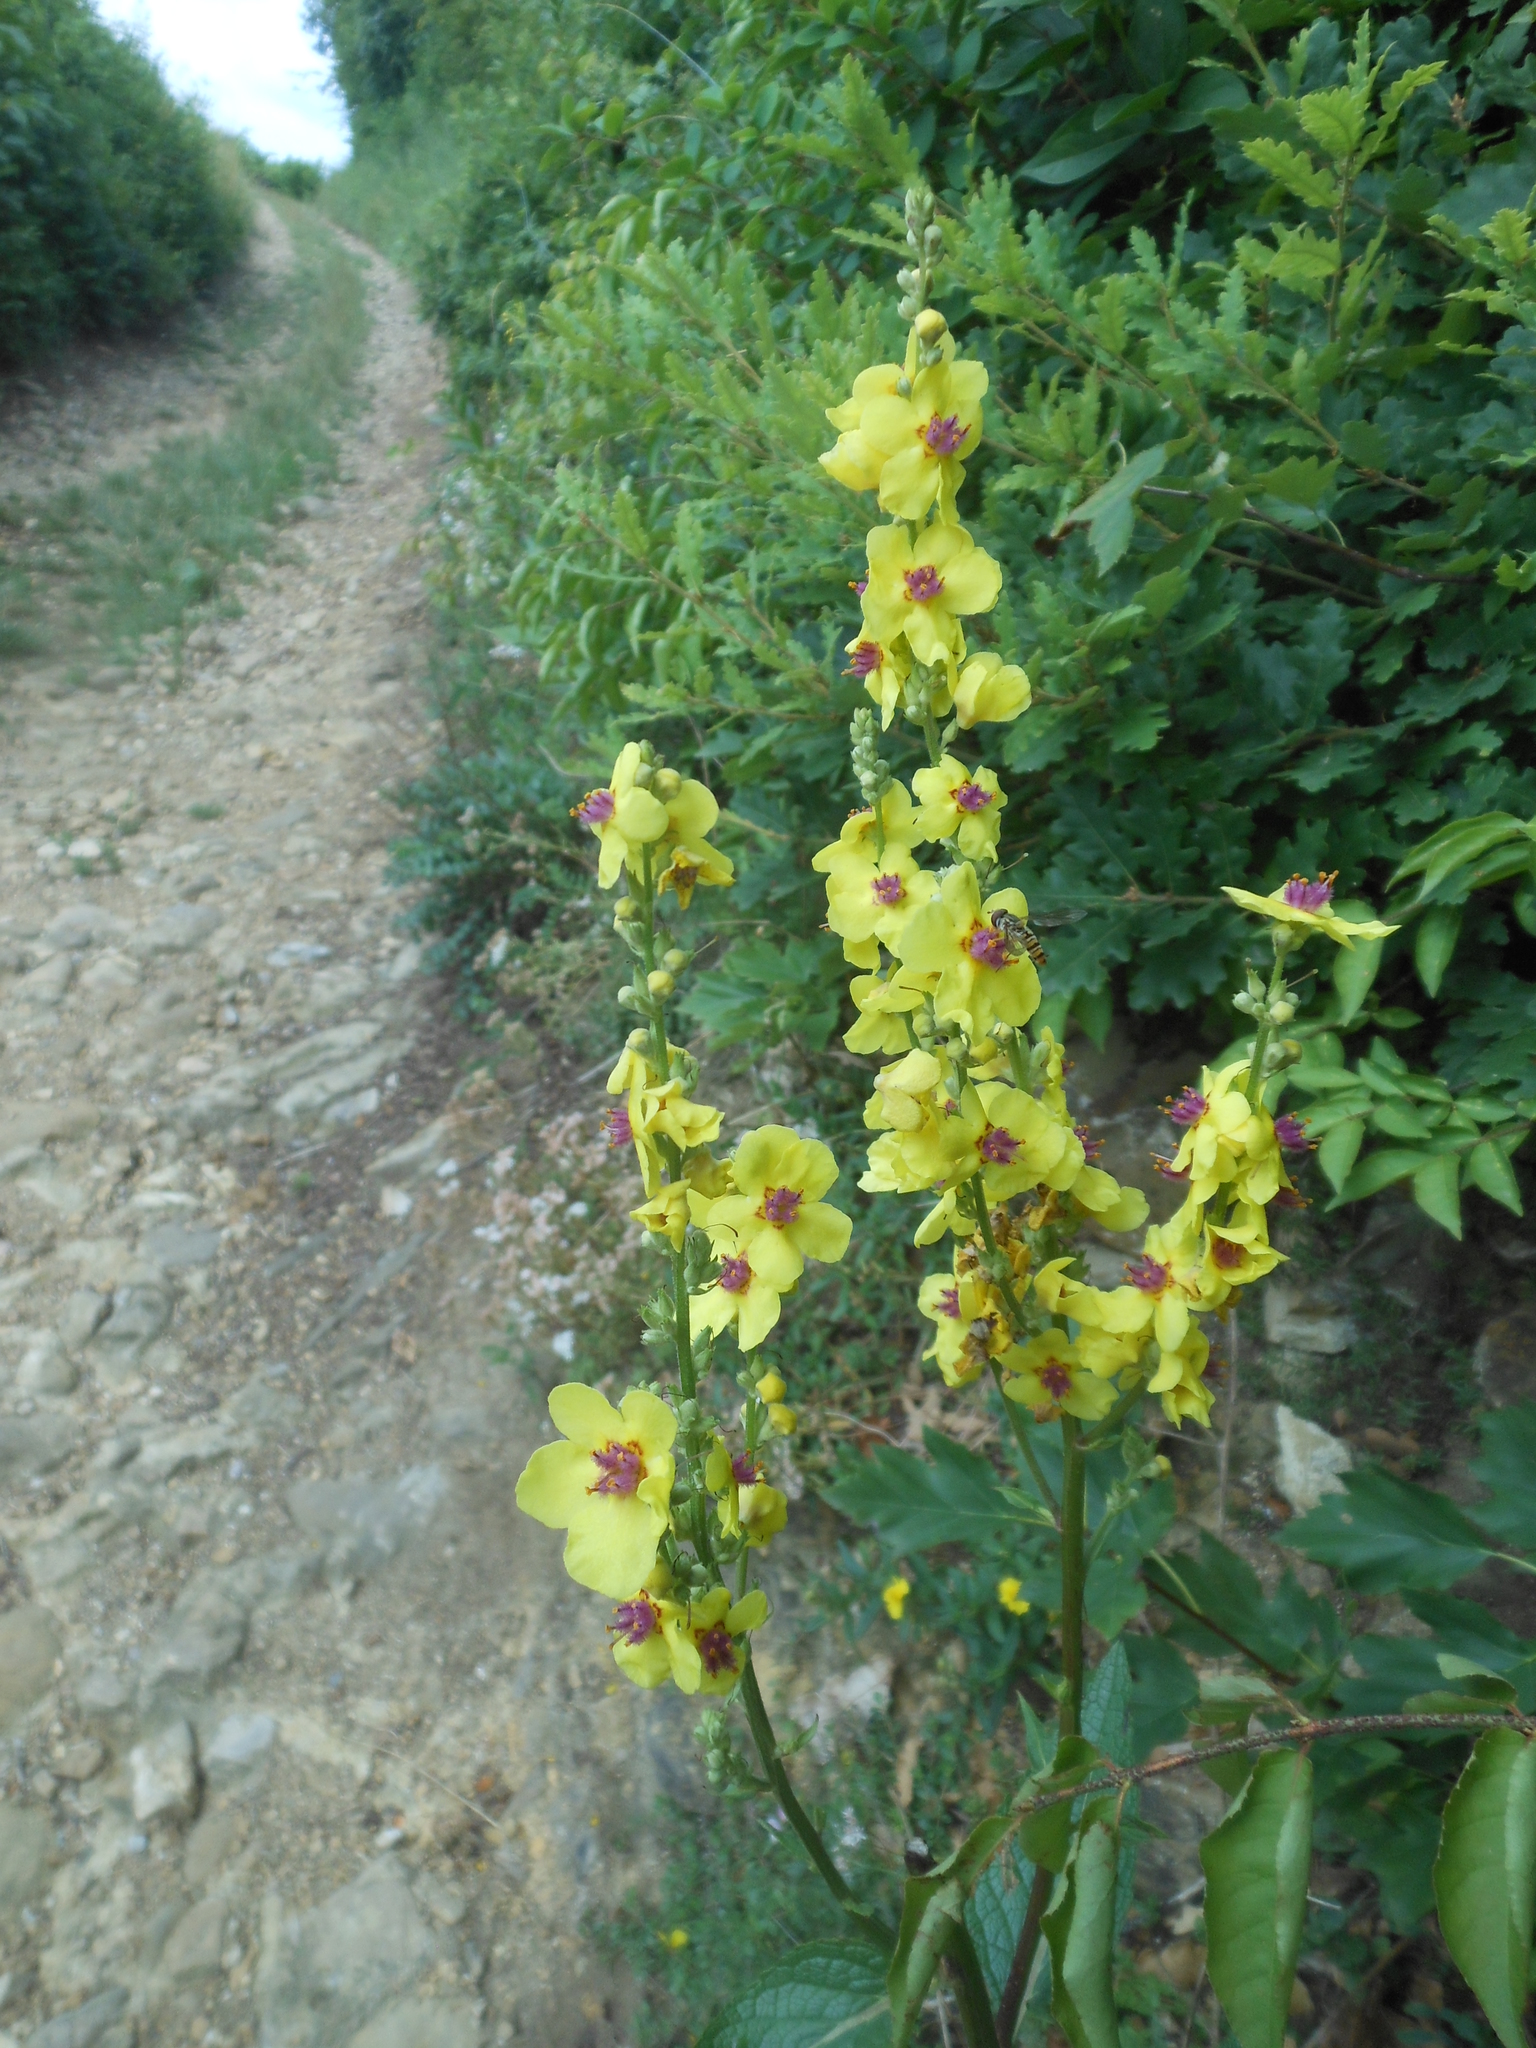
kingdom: Plantae
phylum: Tracheophyta
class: Magnoliopsida
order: Lamiales
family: Scrophulariaceae
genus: Verbascum
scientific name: Verbascum chaixii
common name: Nettle-leaved mullein
